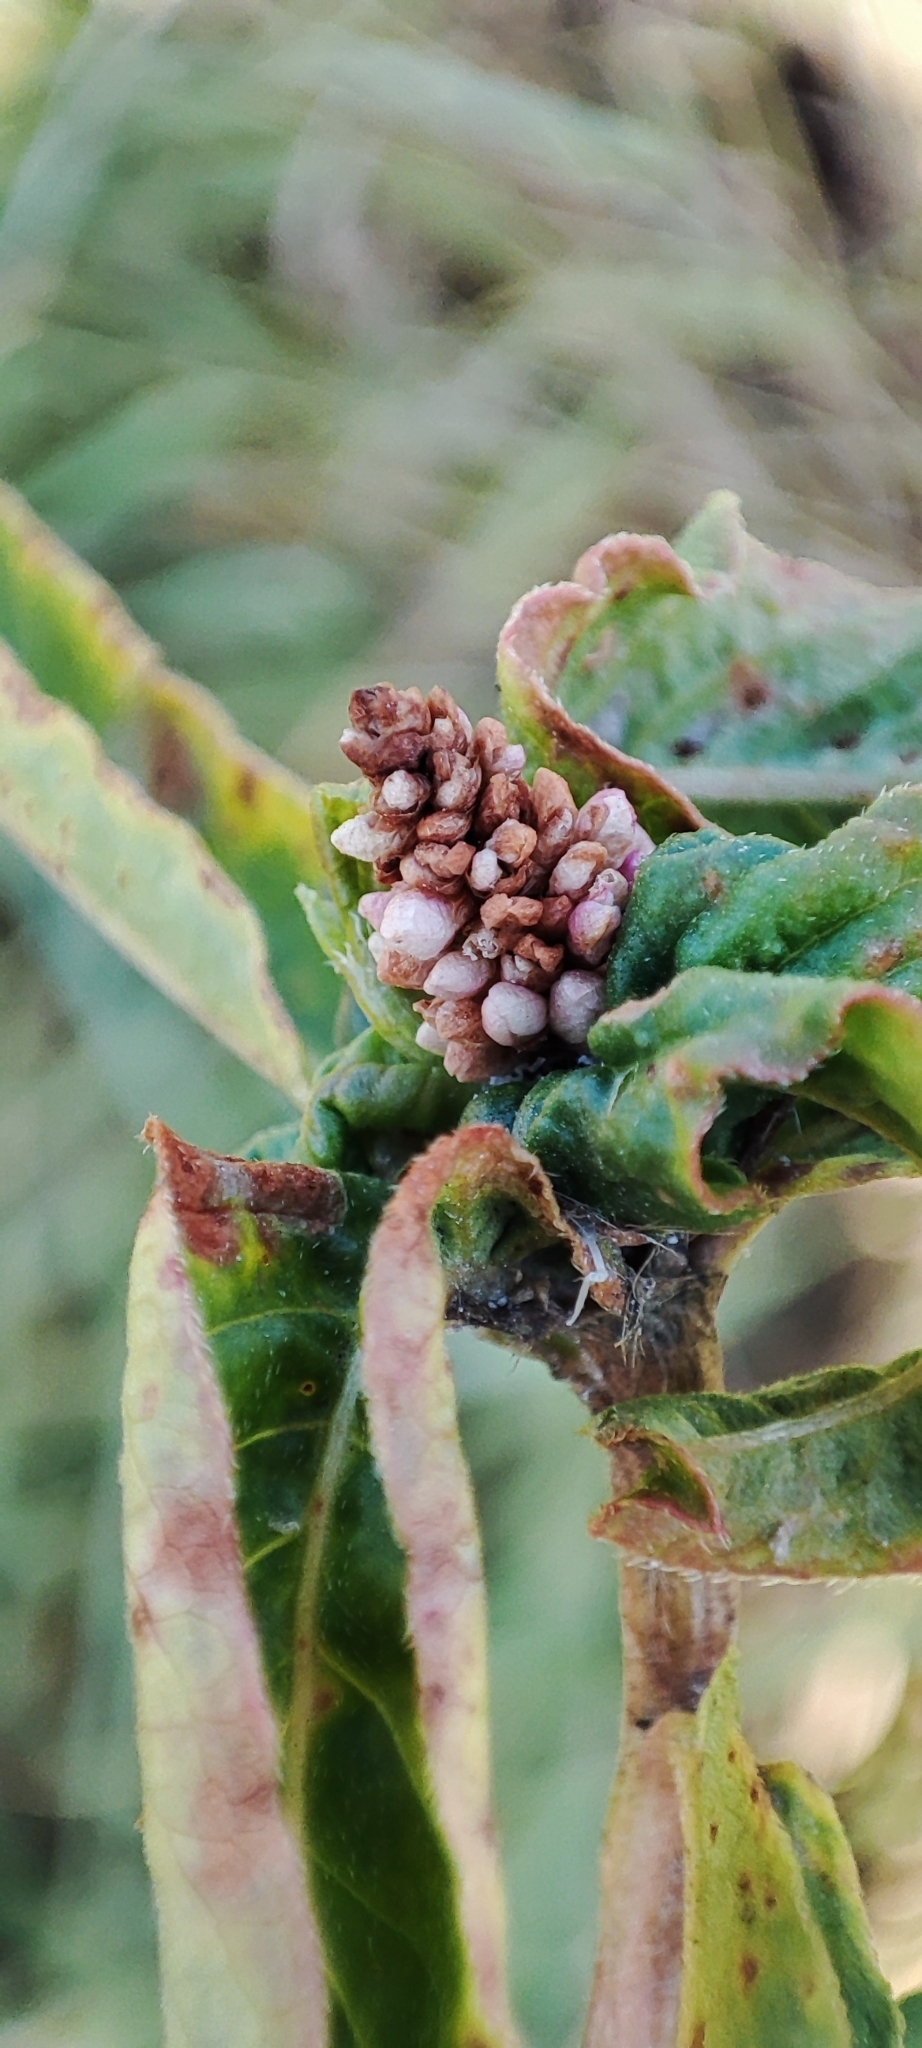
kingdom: Plantae
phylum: Tracheophyta
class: Magnoliopsida
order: Caryophyllales
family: Polygonaceae
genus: Persicaria
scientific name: Persicaria amphibia
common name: Amphibious bistort
